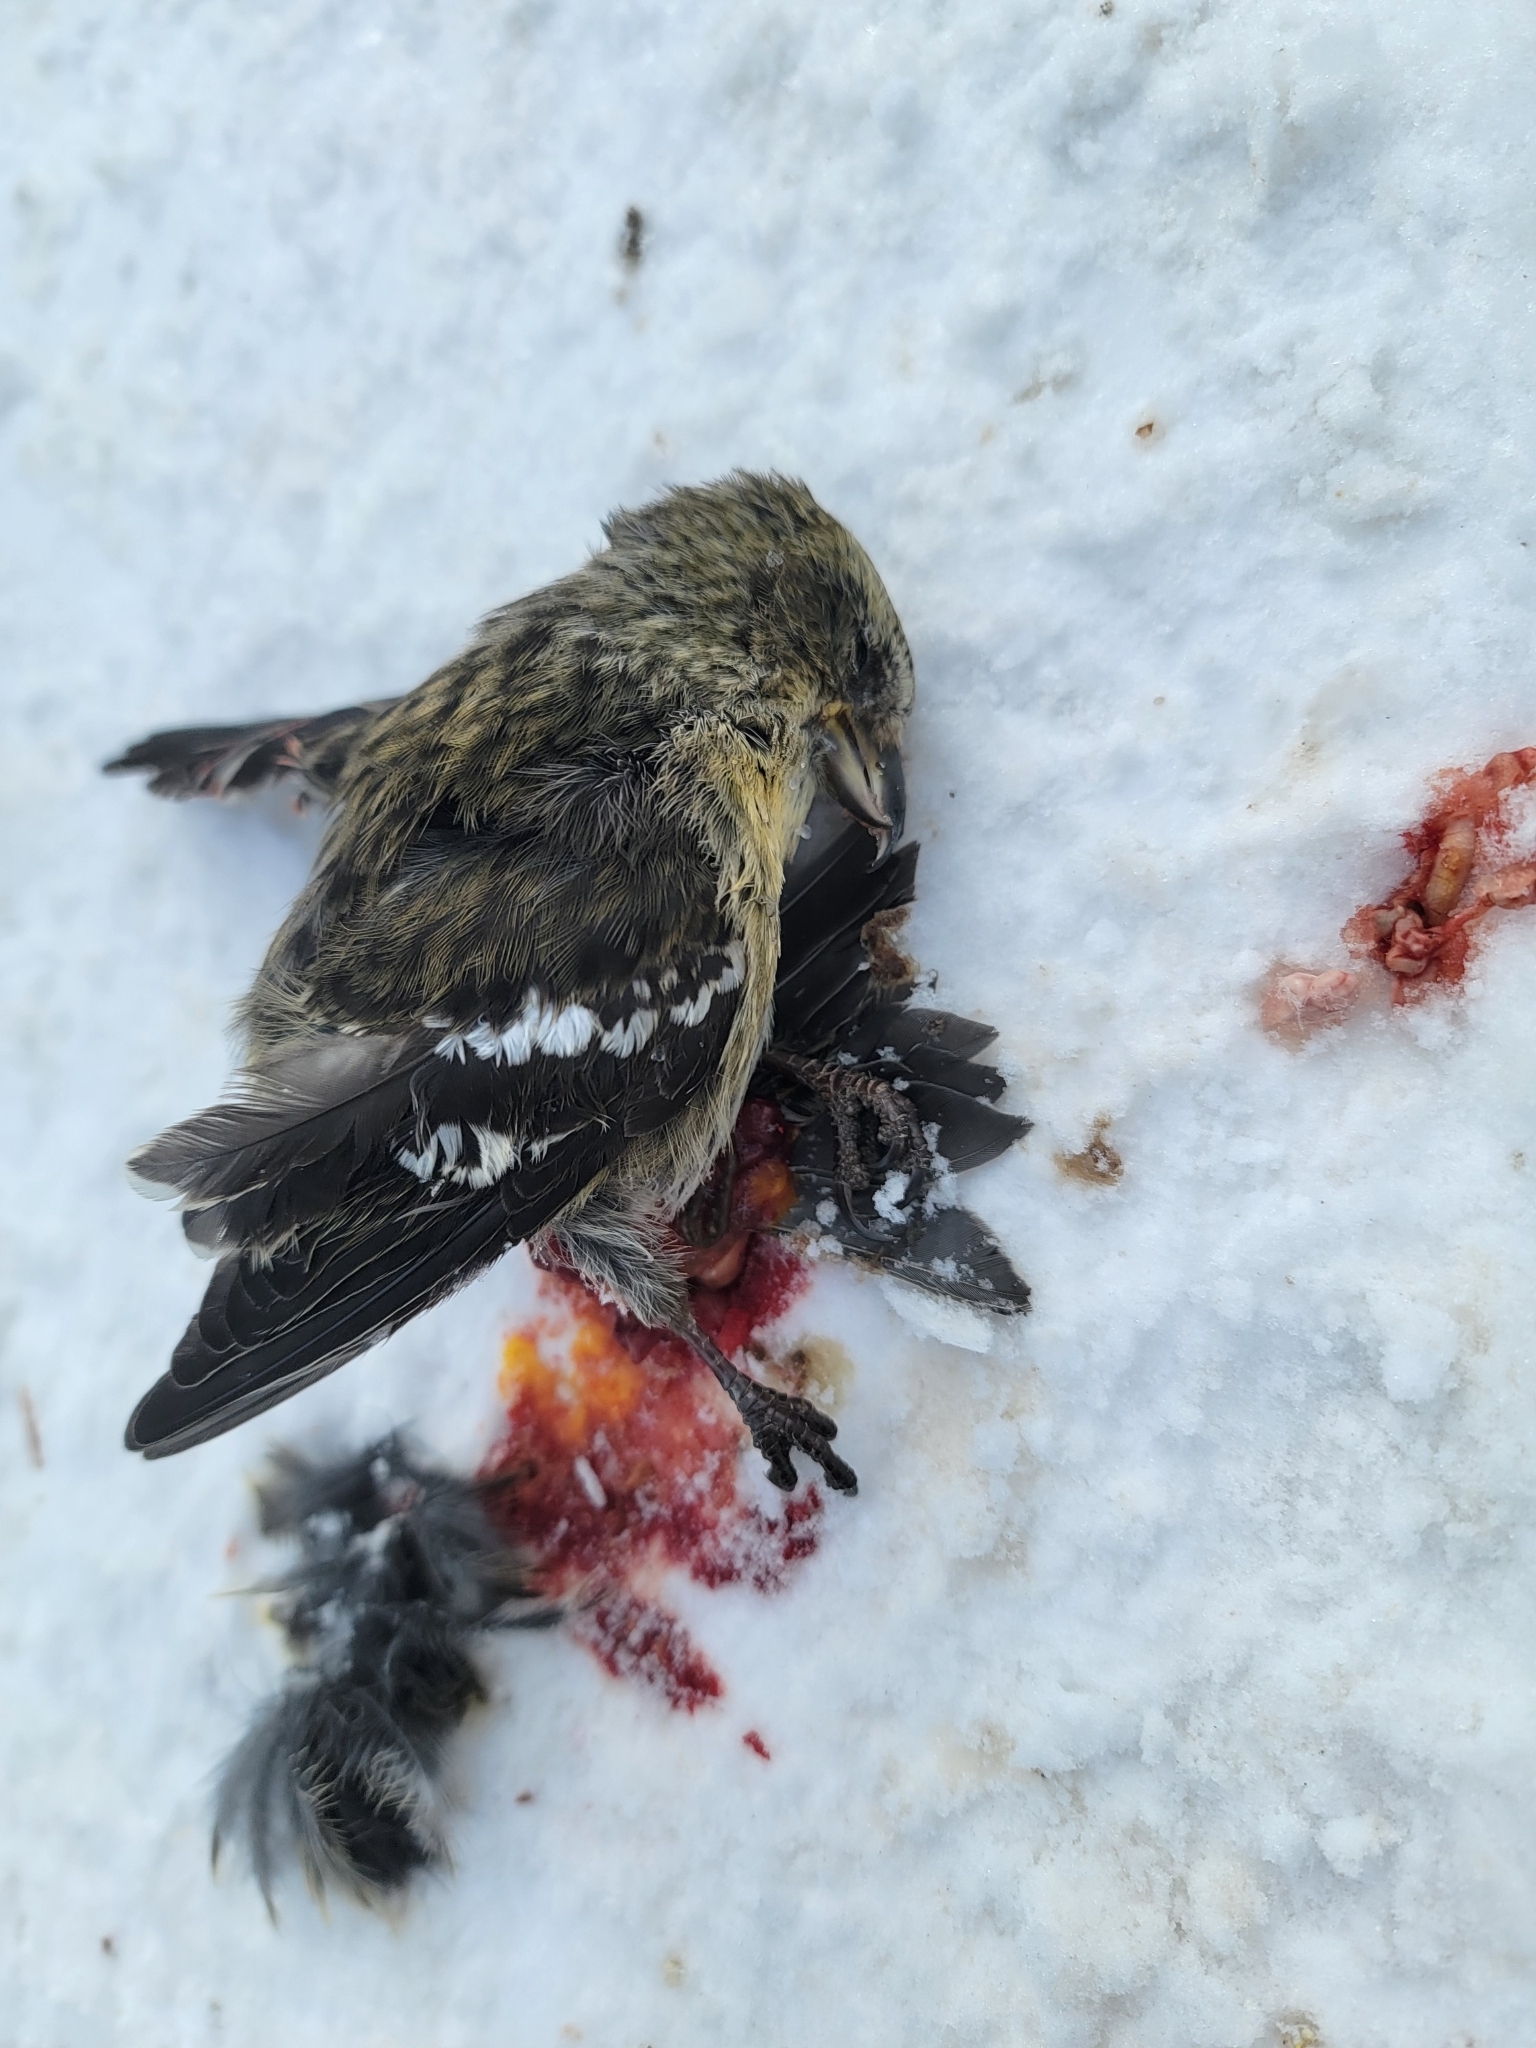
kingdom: Animalia
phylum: Chordata
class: Aves
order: Passeriformes
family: Fringillidae
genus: Loxia
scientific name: Loxia leucoptera
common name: Two-barred crossbill
